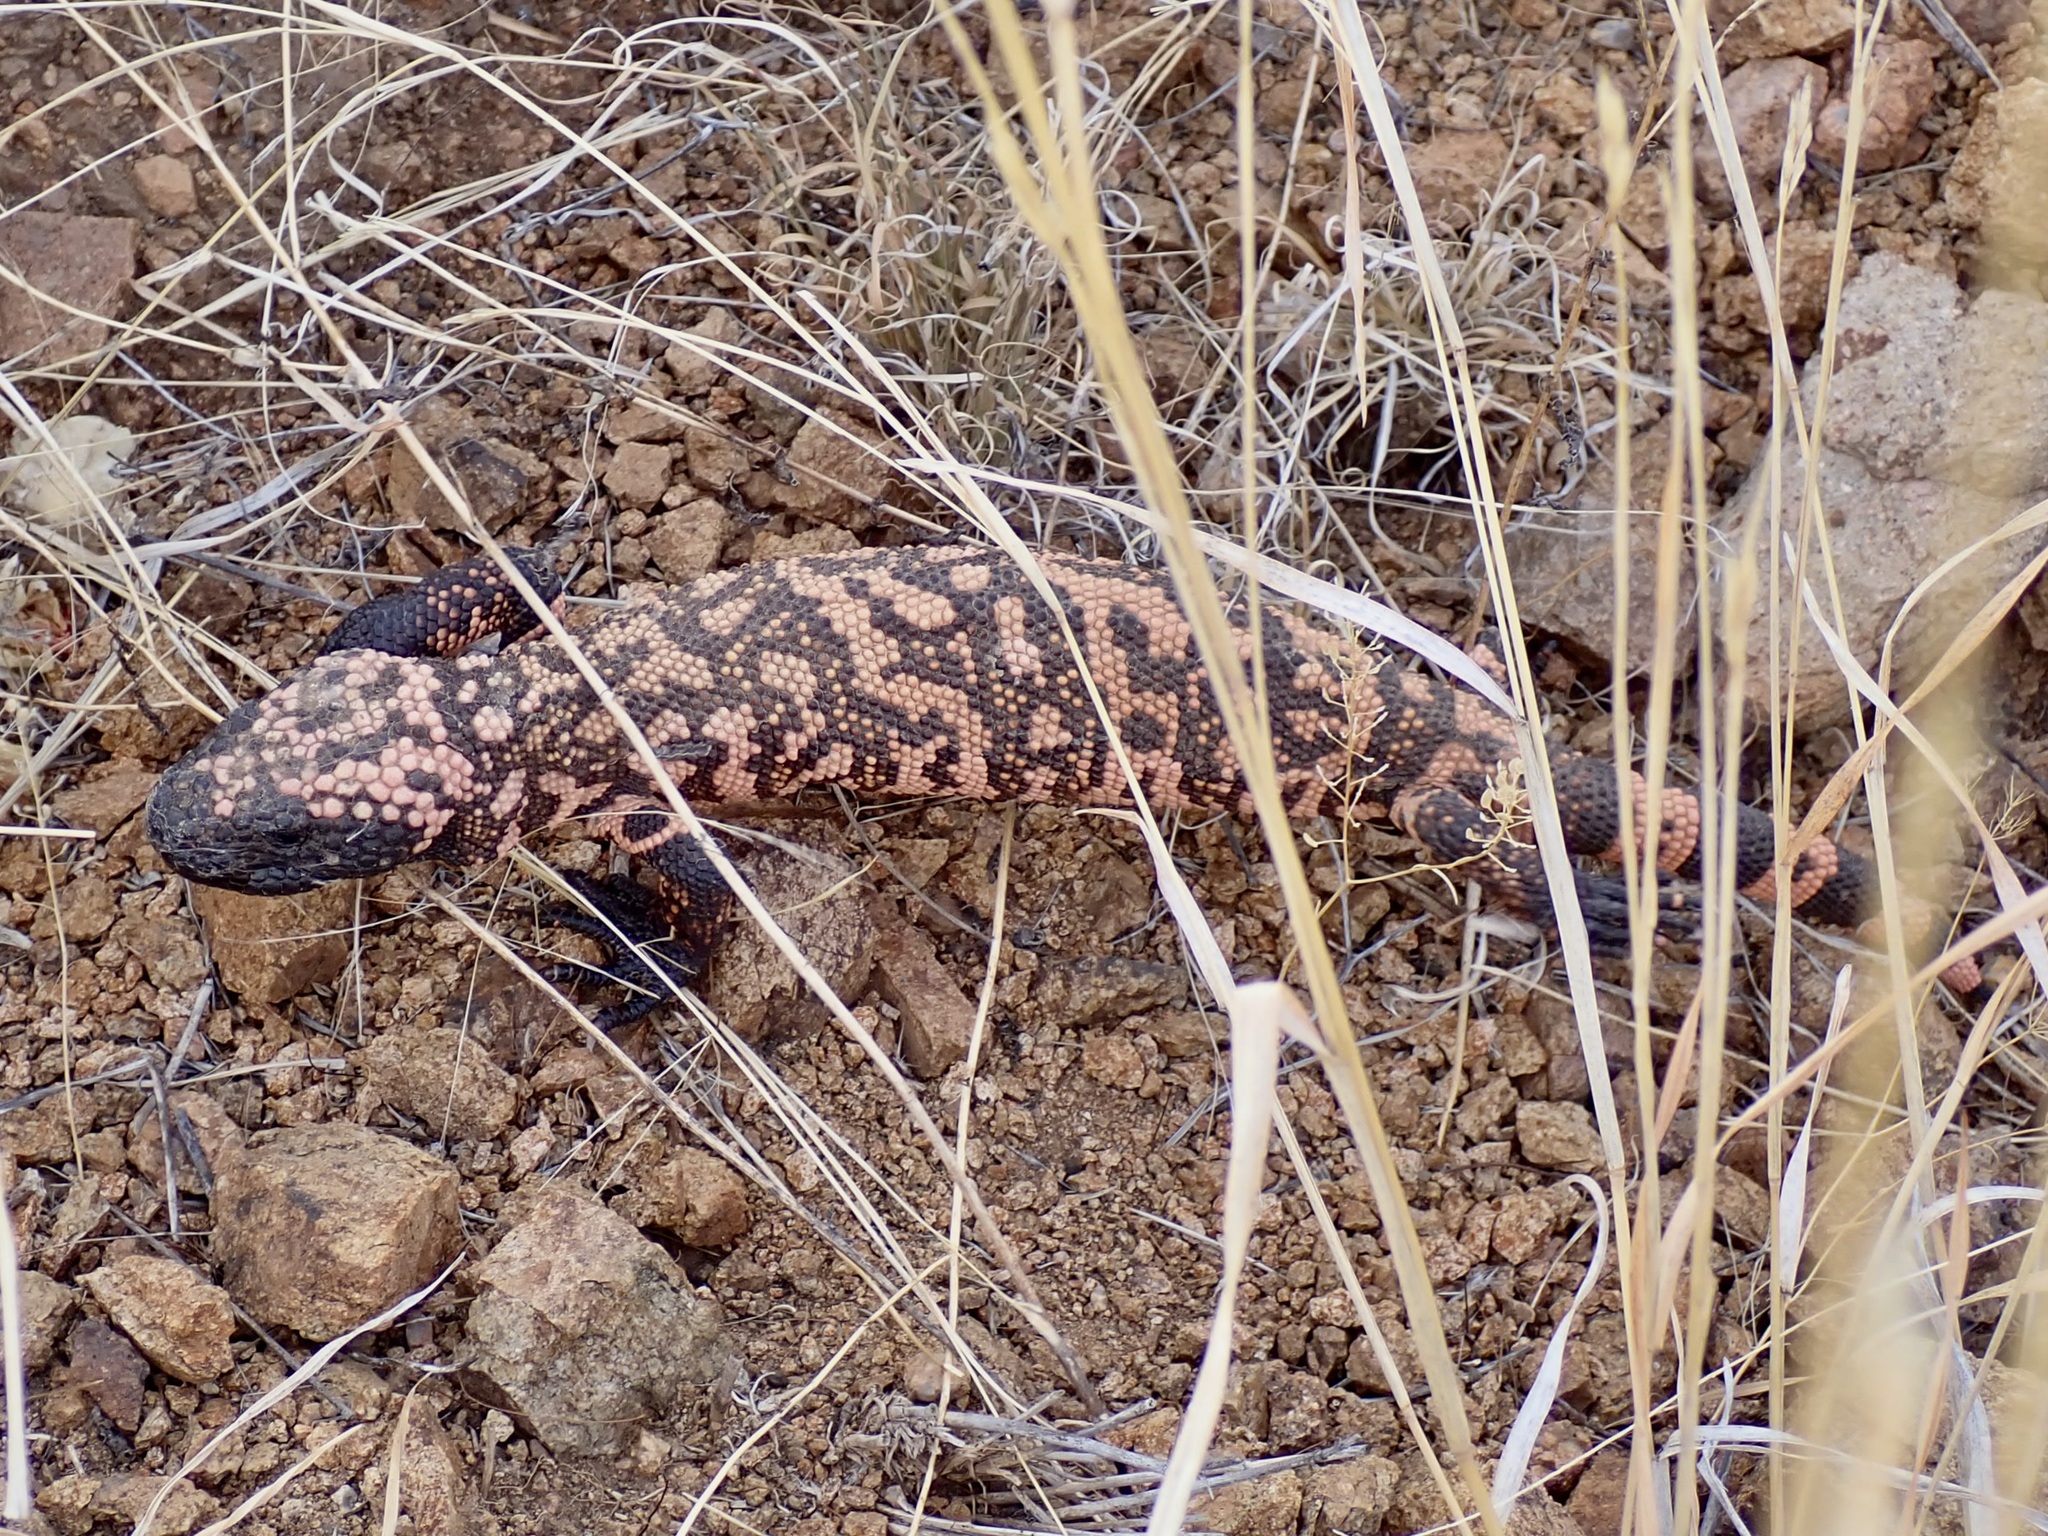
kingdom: Animalia
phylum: Chordata
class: Squamata
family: Helodermatidae
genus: Heloderma
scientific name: Heloderma suspectum
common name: Gila monster
